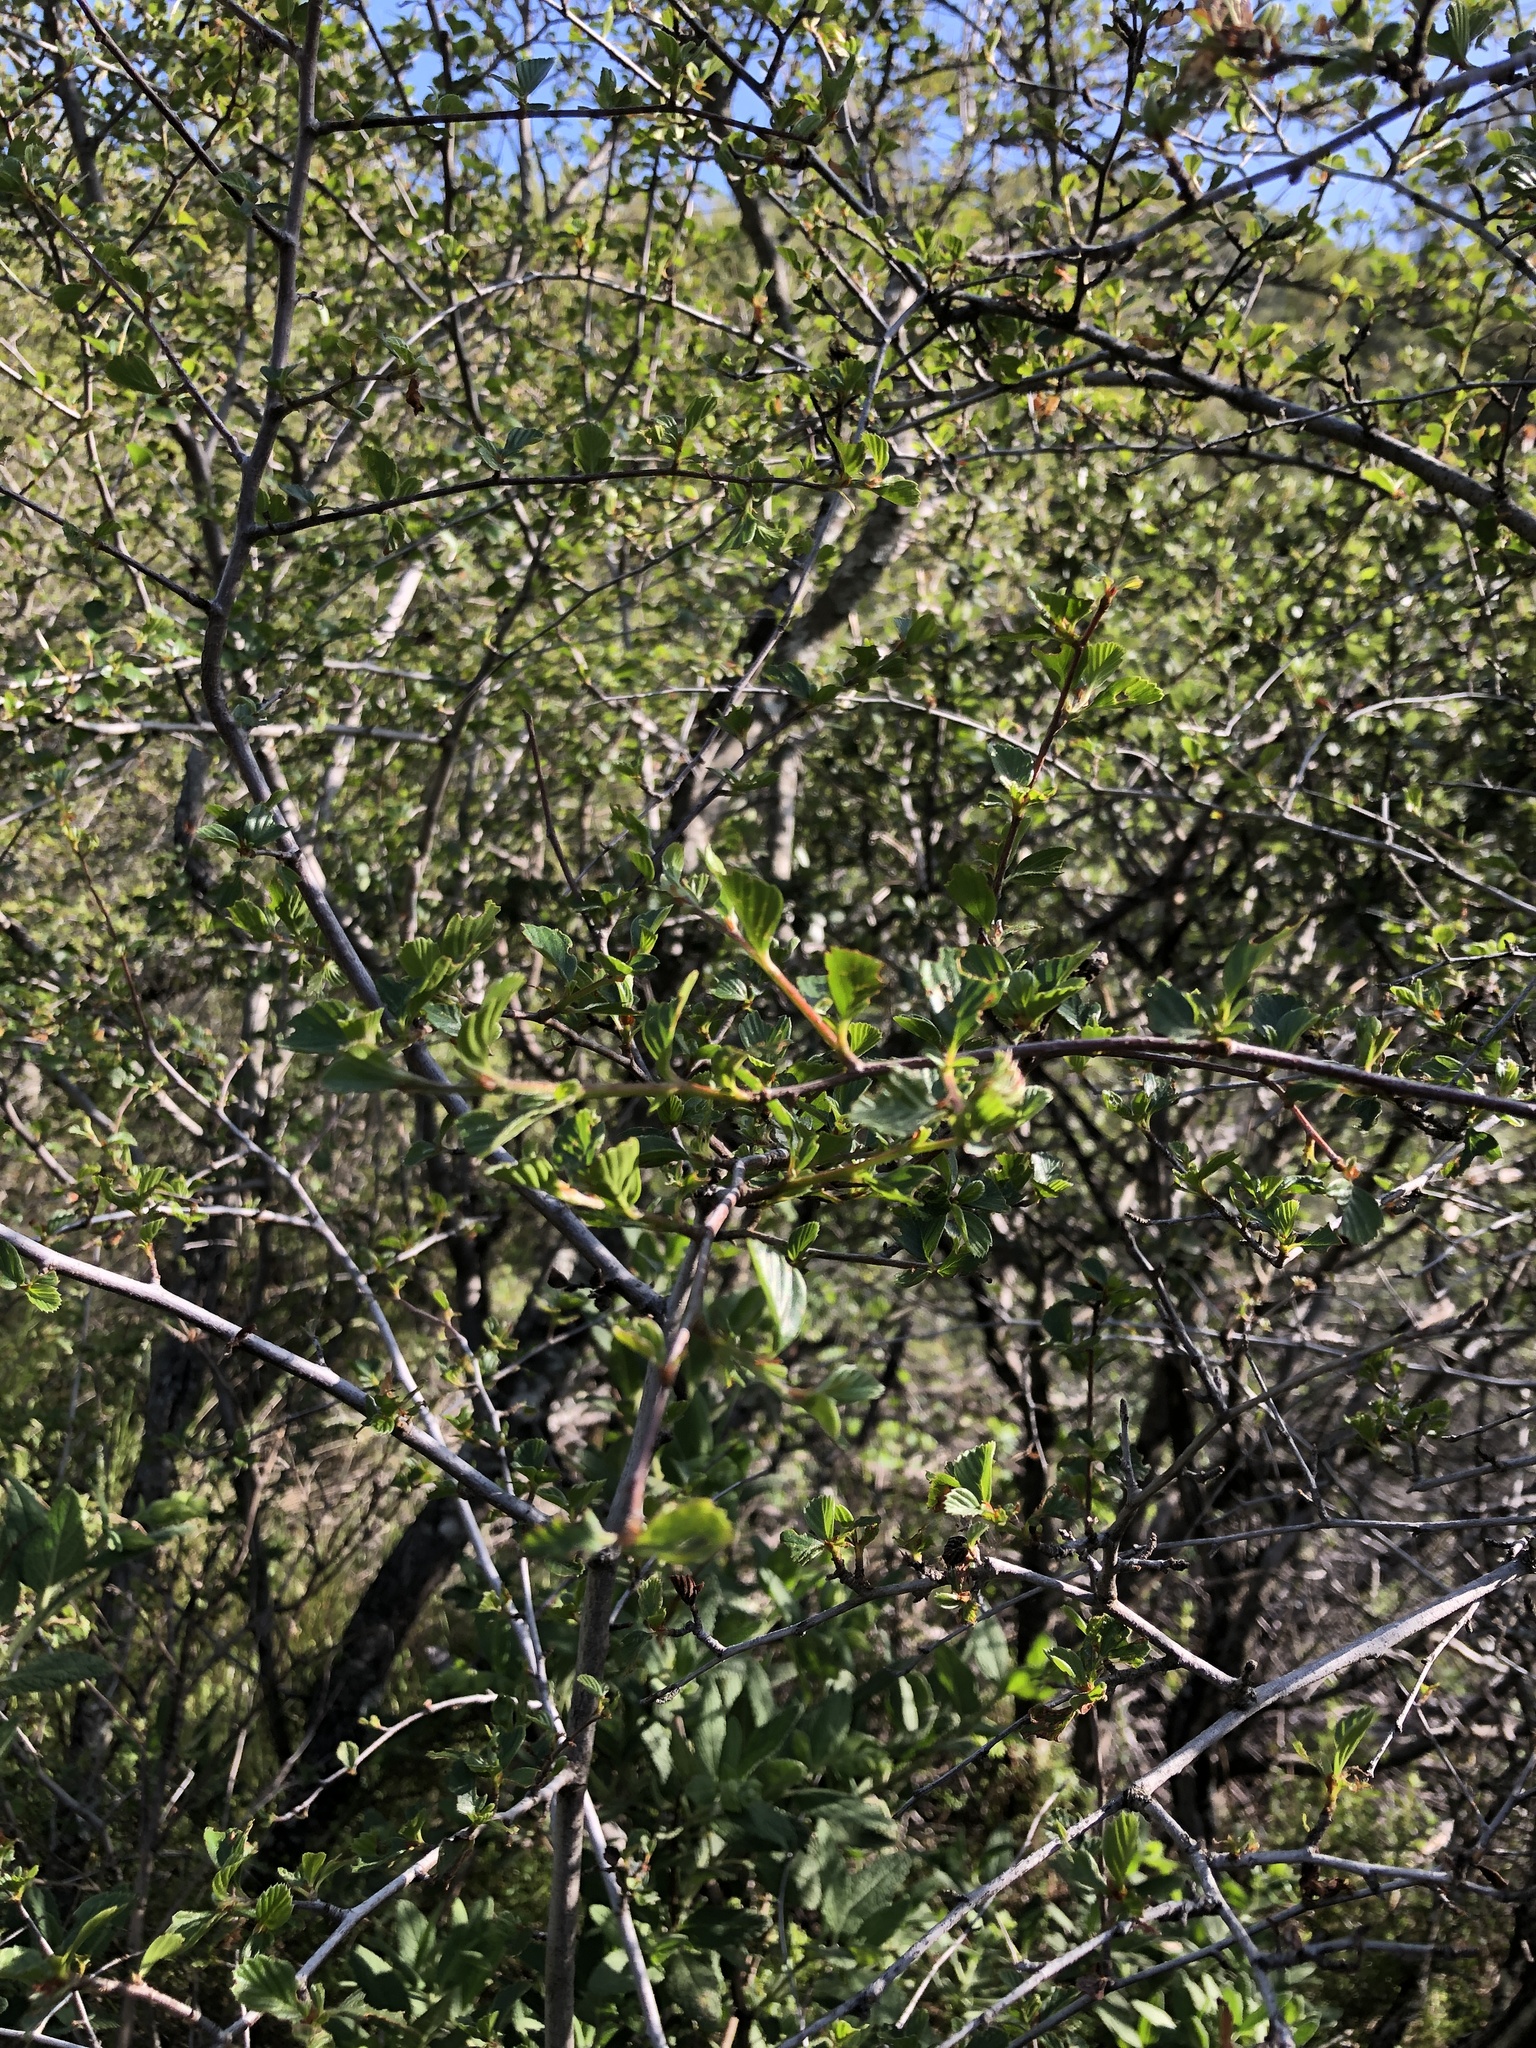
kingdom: Plantae
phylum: Tracheophyta
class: Magnoliopsida
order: Rosales
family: Rosaceae
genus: Cercocarpus
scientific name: Cercocarpus betuloides
